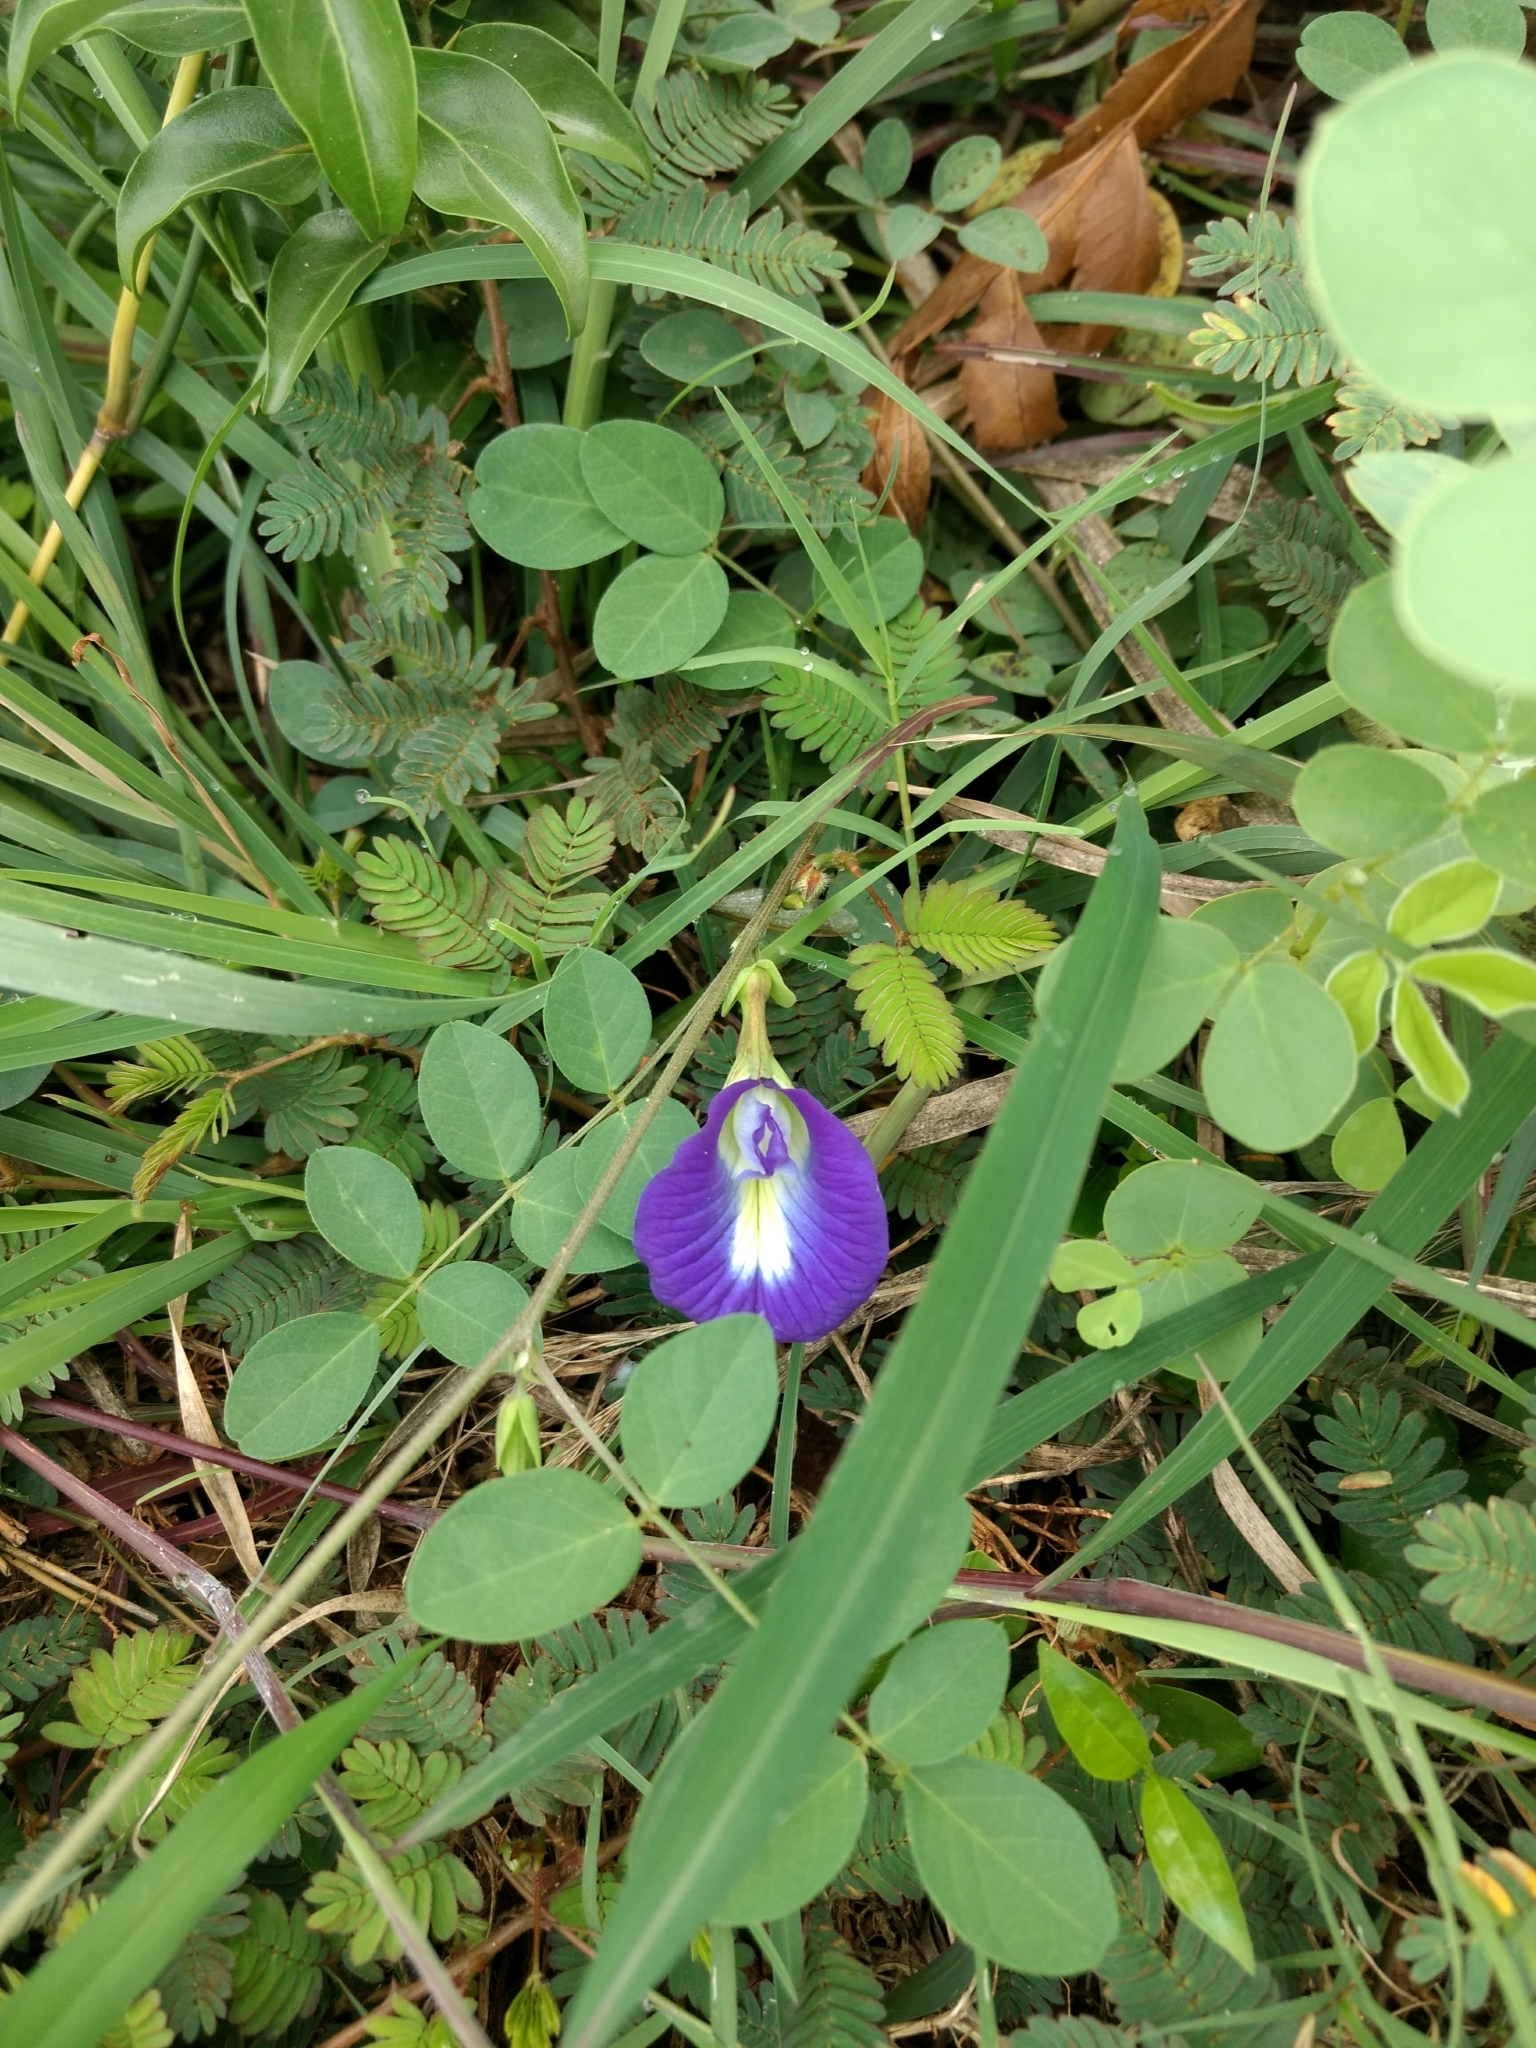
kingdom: Plantae
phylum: Tracheophyta
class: Magnoliopsida
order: Fabales
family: Fabaceae
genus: Clitoria
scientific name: Clitoria ternatea
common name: Asian pigeonwings
